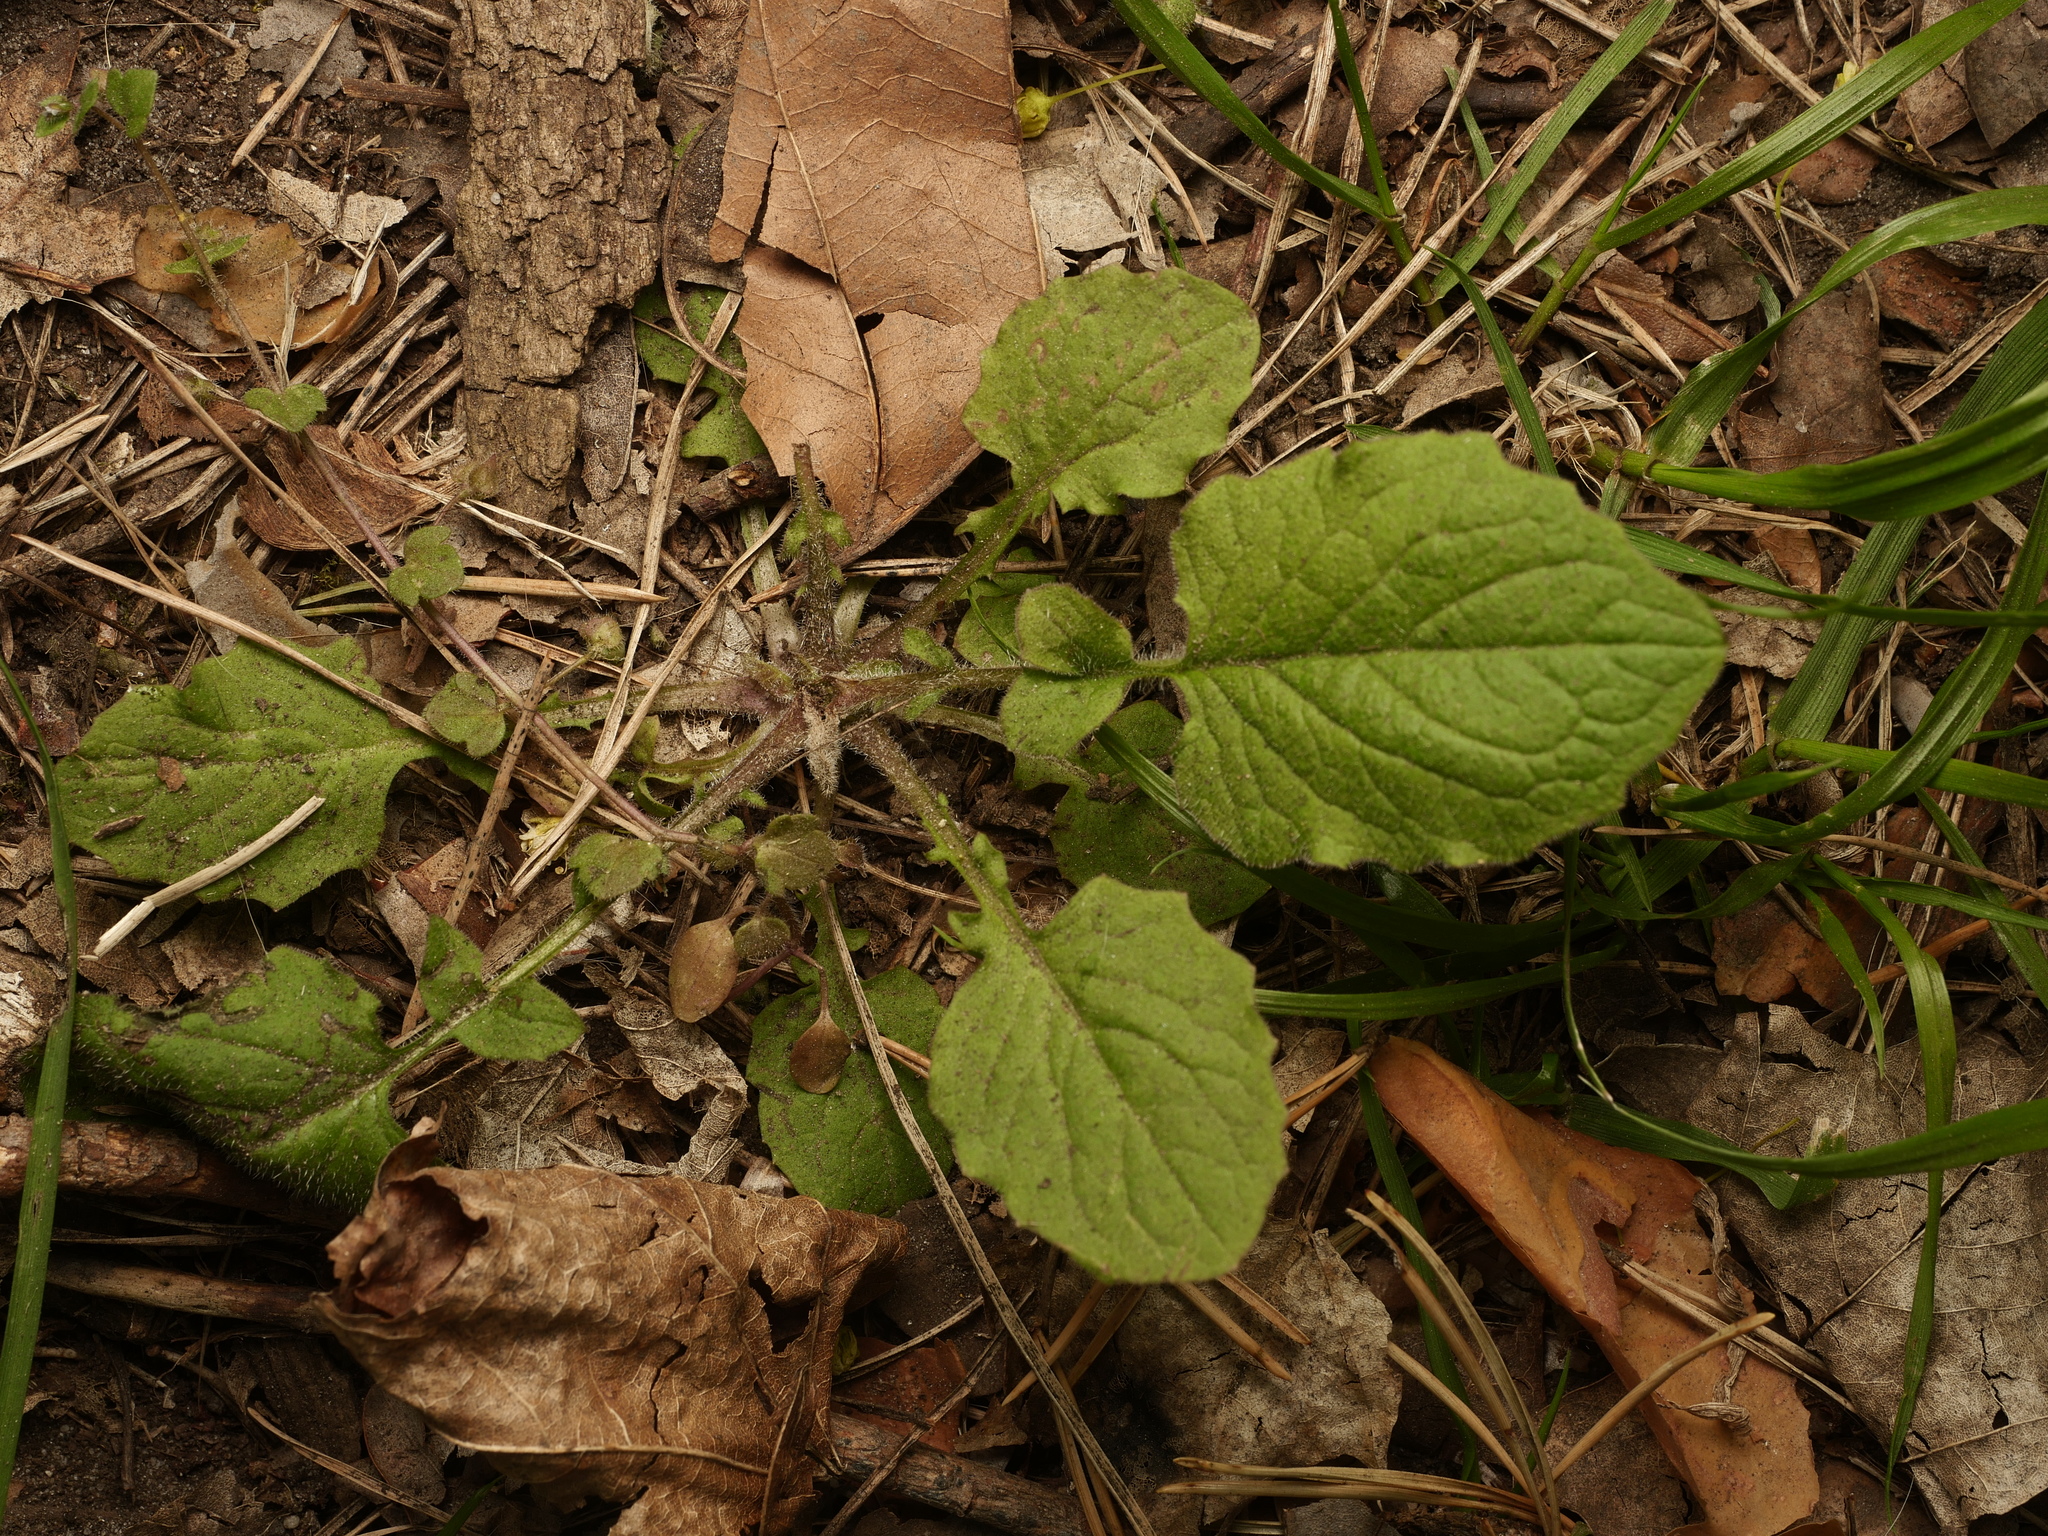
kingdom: Plantae
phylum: Tracheophyta
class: Magnoliopsida
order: Asterales
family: Asteraceae
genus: Lapsana
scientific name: Lapsana communis
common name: Nipplewort
